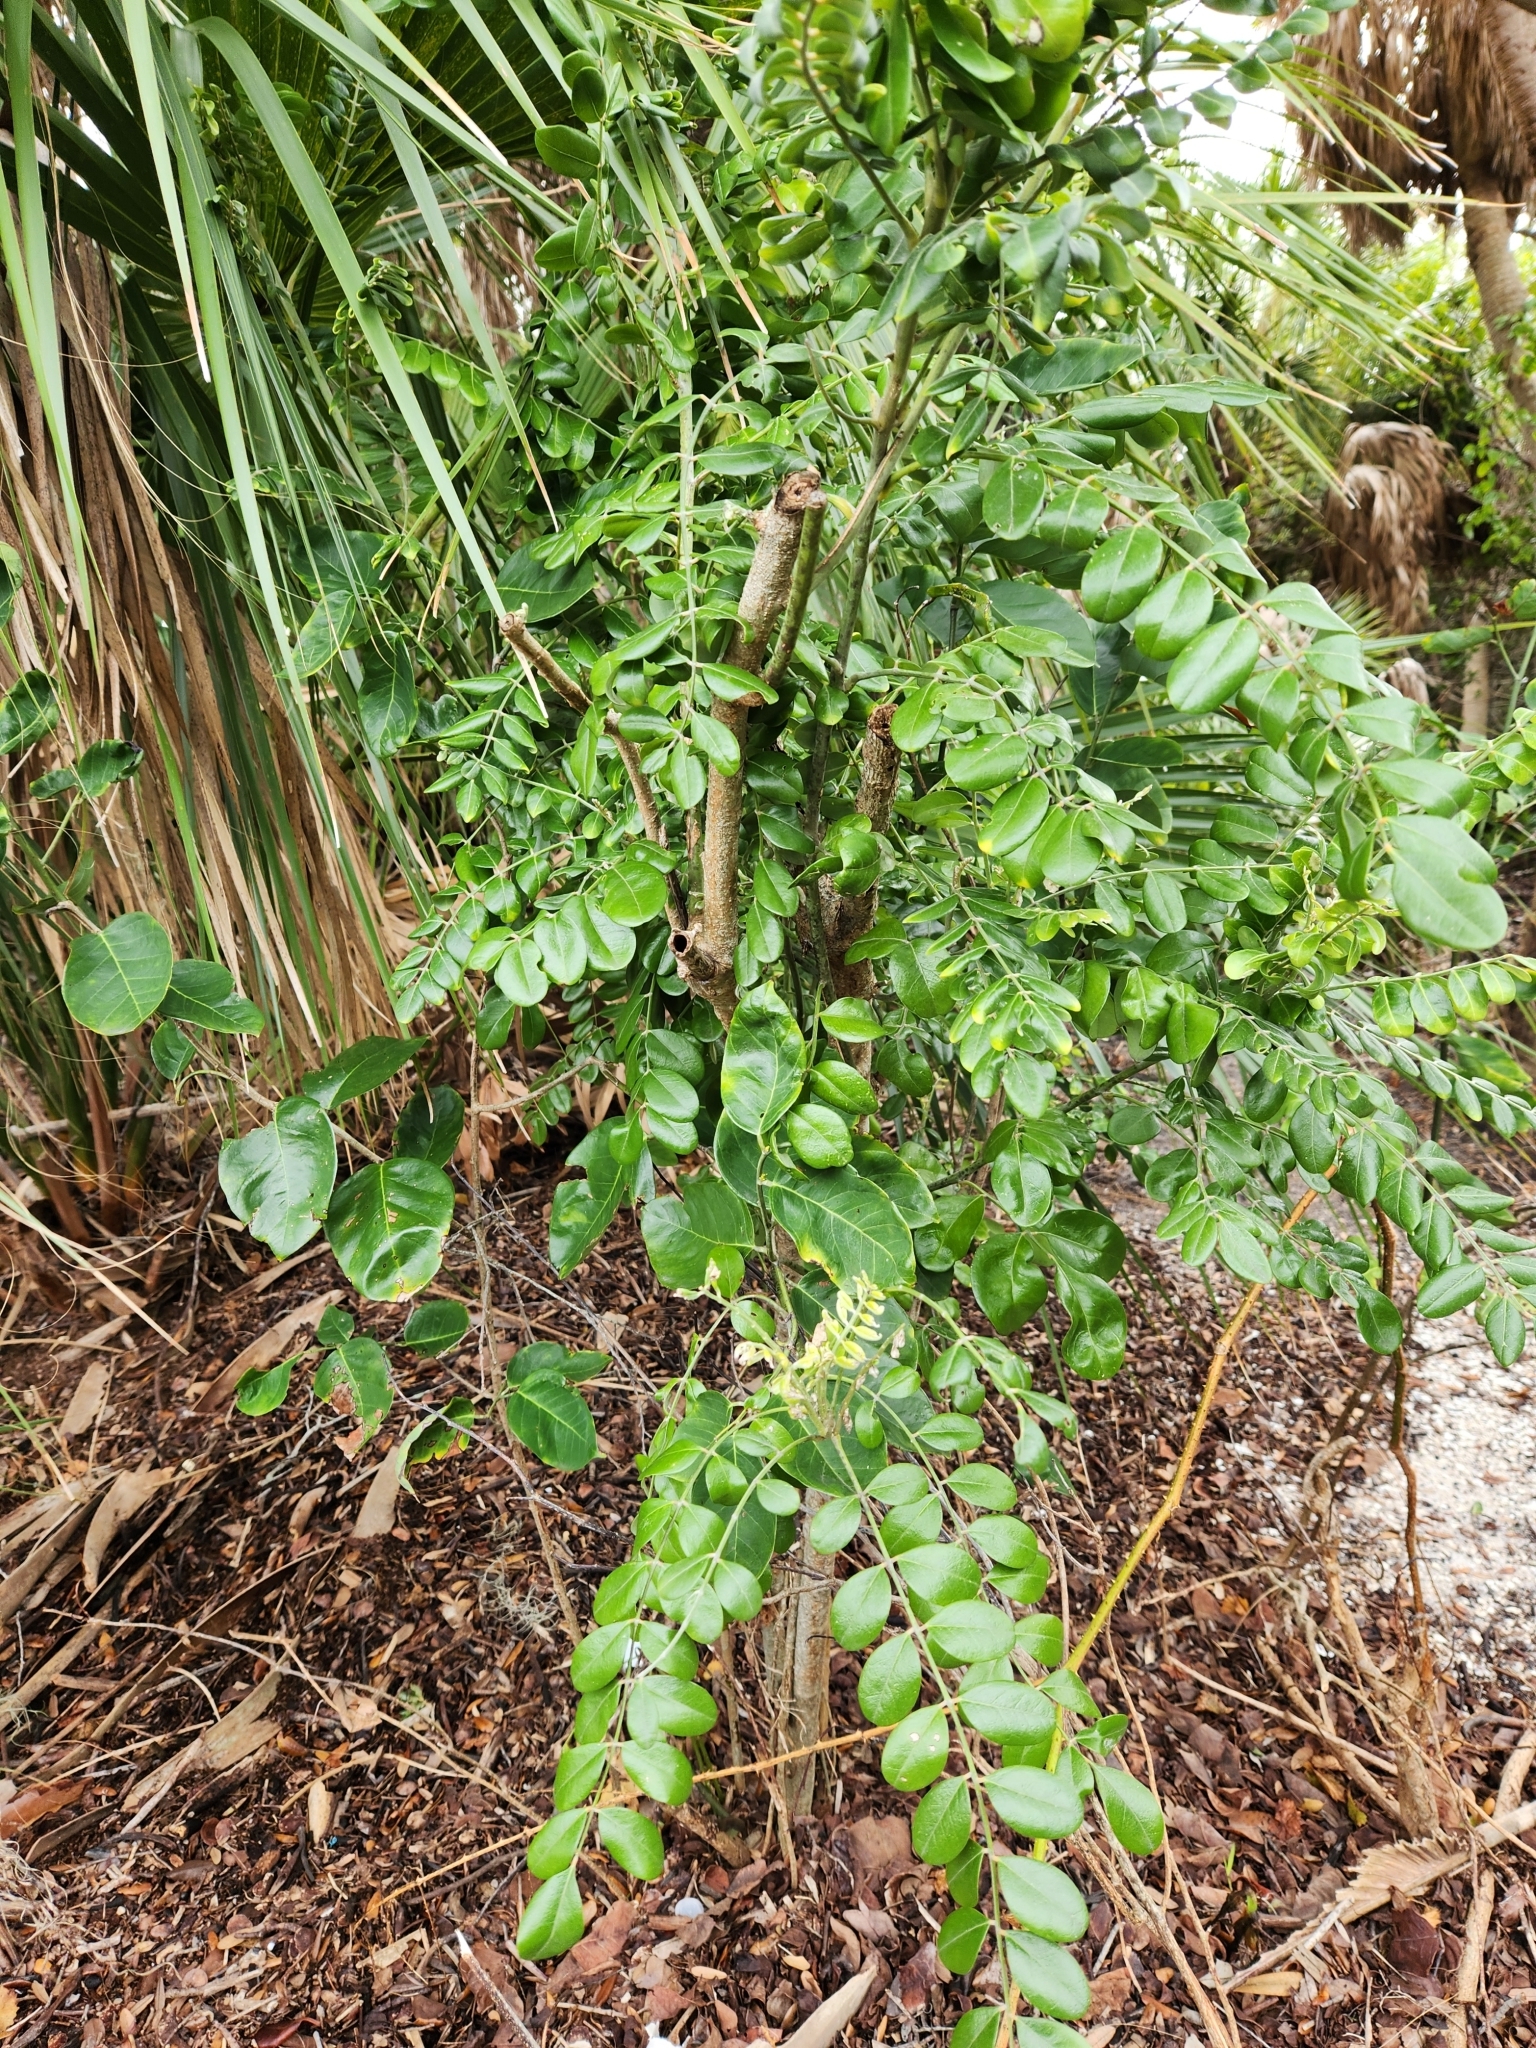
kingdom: Plantae
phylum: Tracheophyta
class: Magnoliopsida
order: Fabales
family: Fabaceae
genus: Sophora
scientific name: Sophora tomentosa
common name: Yellow necklacepod
